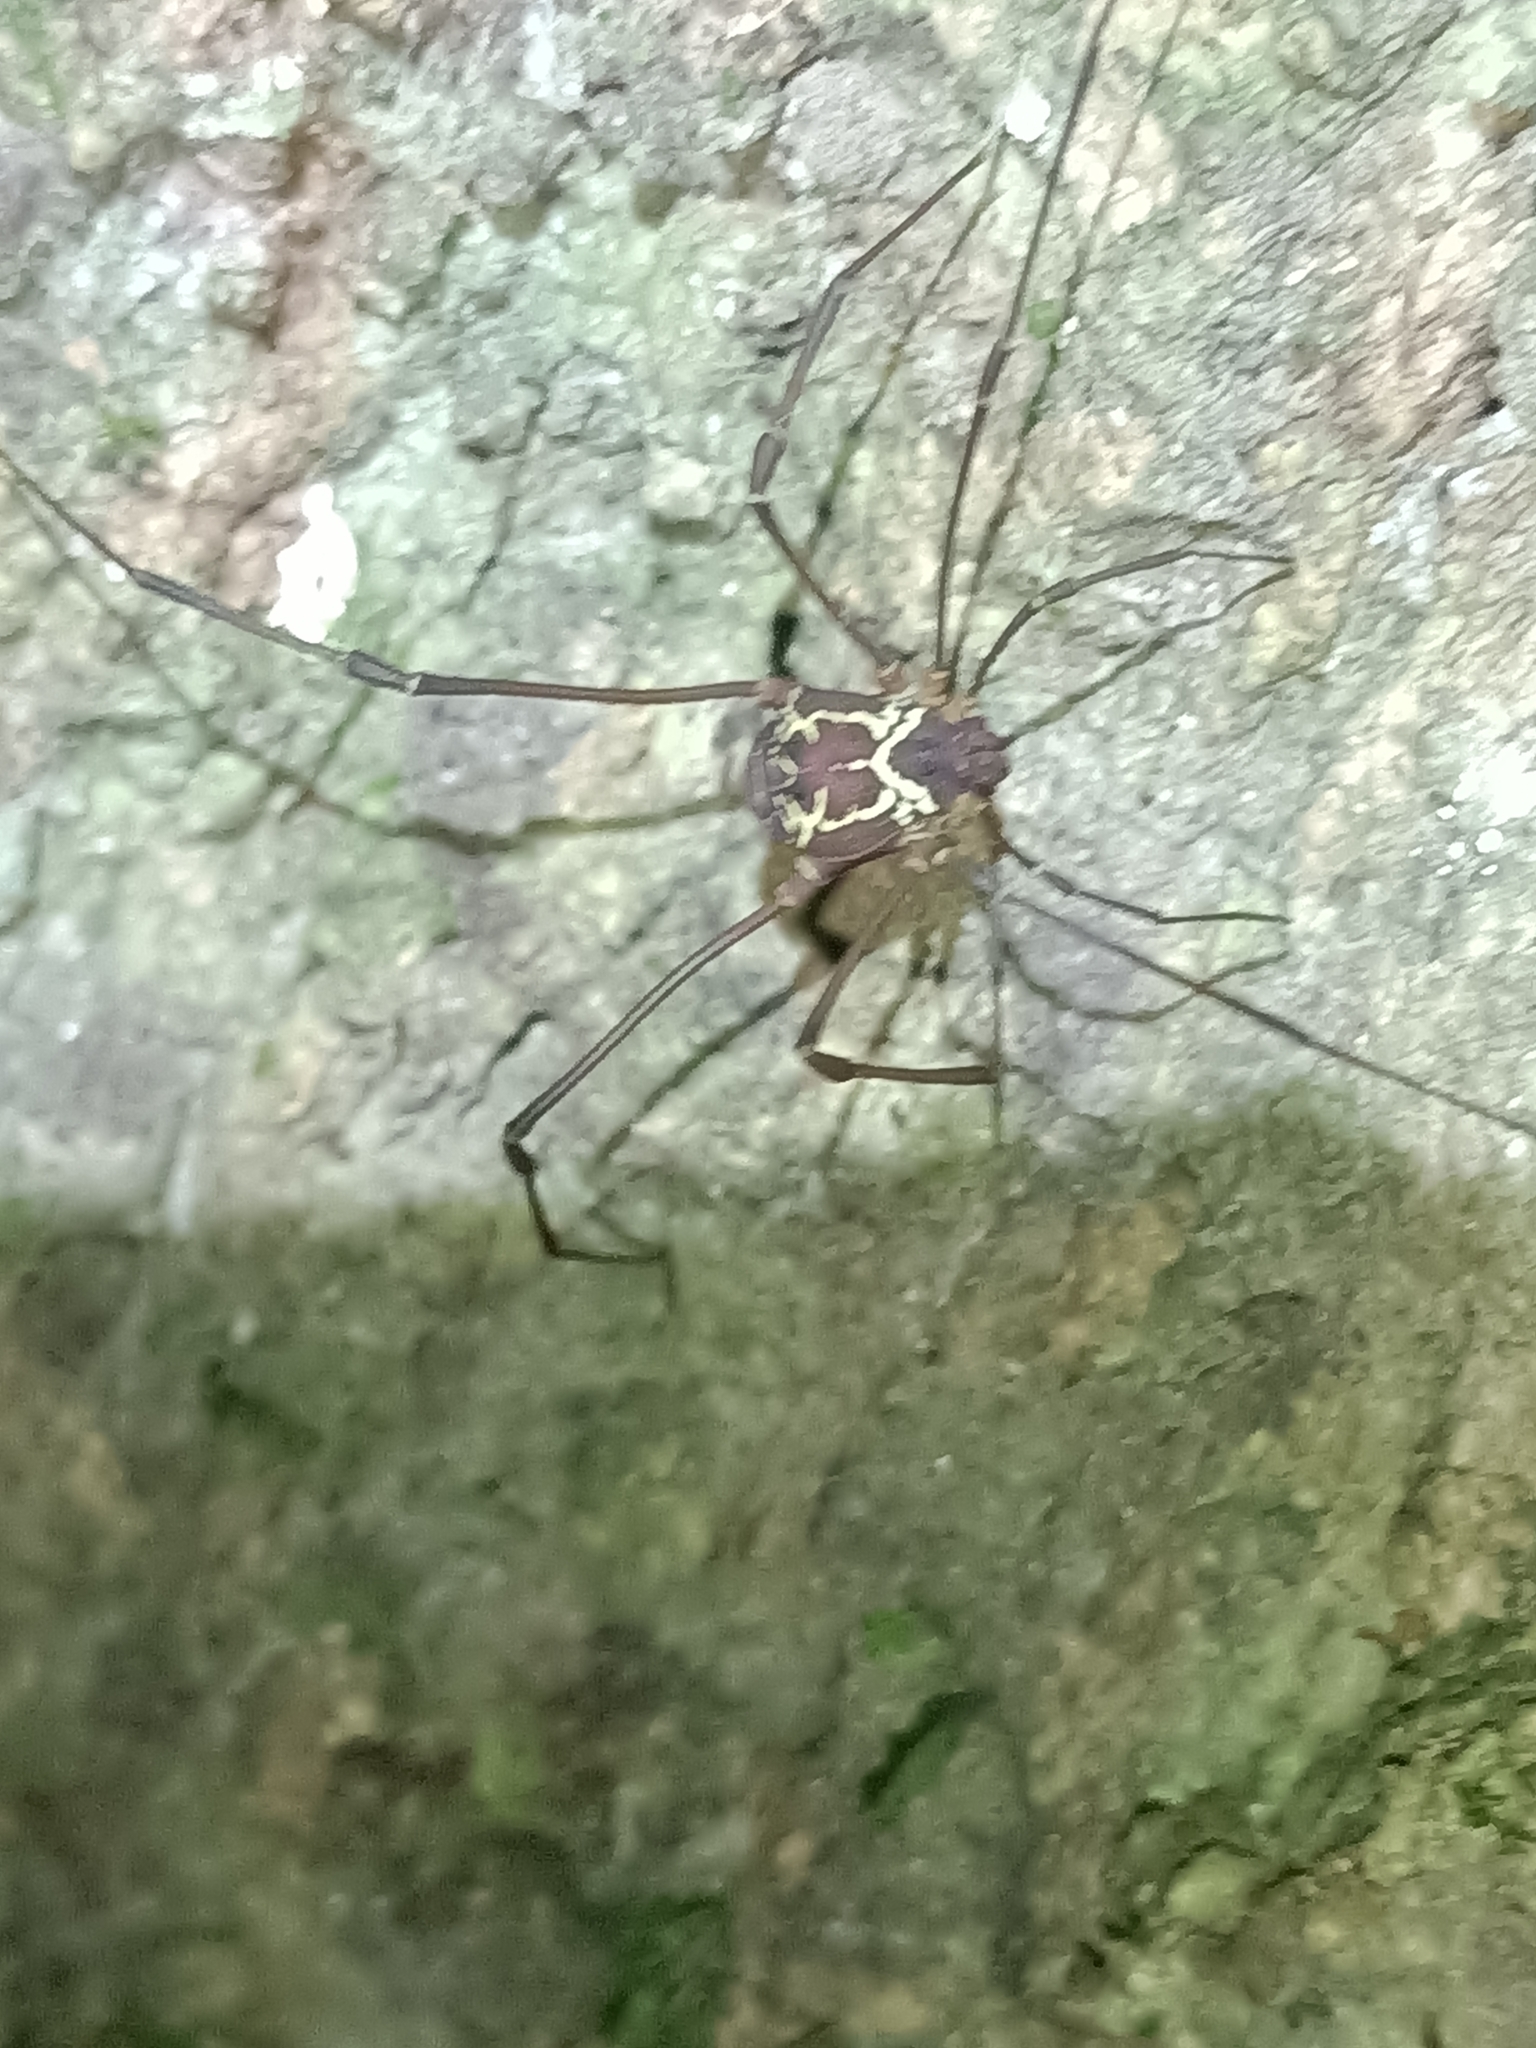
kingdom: Animalia
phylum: Arthropoda
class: Arachnida
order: Opiliones
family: Cosmetidae
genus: Paecilaema
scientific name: Paecilaema curvipes
